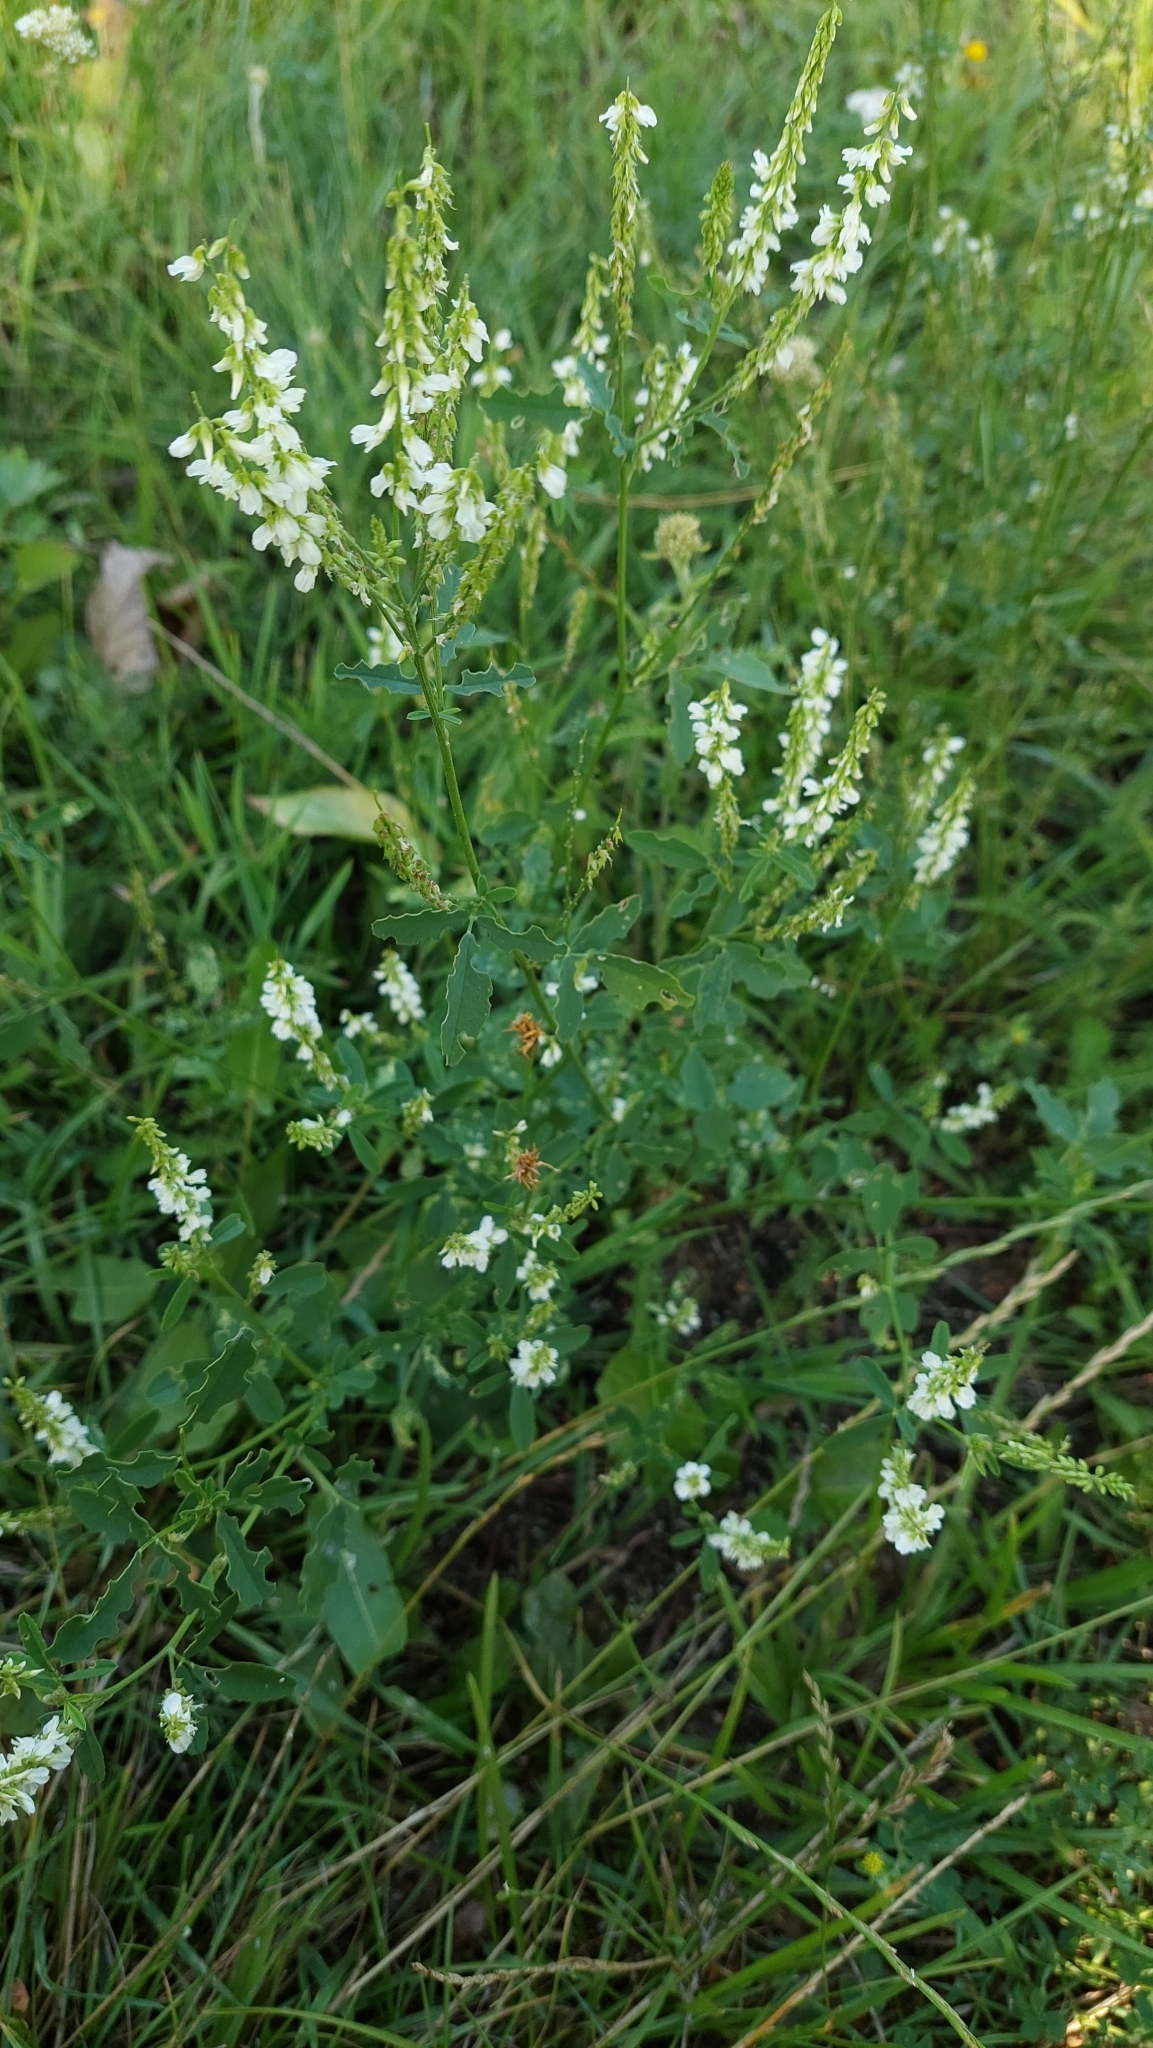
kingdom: Plantae
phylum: Tracheophyta
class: Magnoliopsida
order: Fabales
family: Fabaceae
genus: Melilotus
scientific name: Melilotus albus
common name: White melilot
